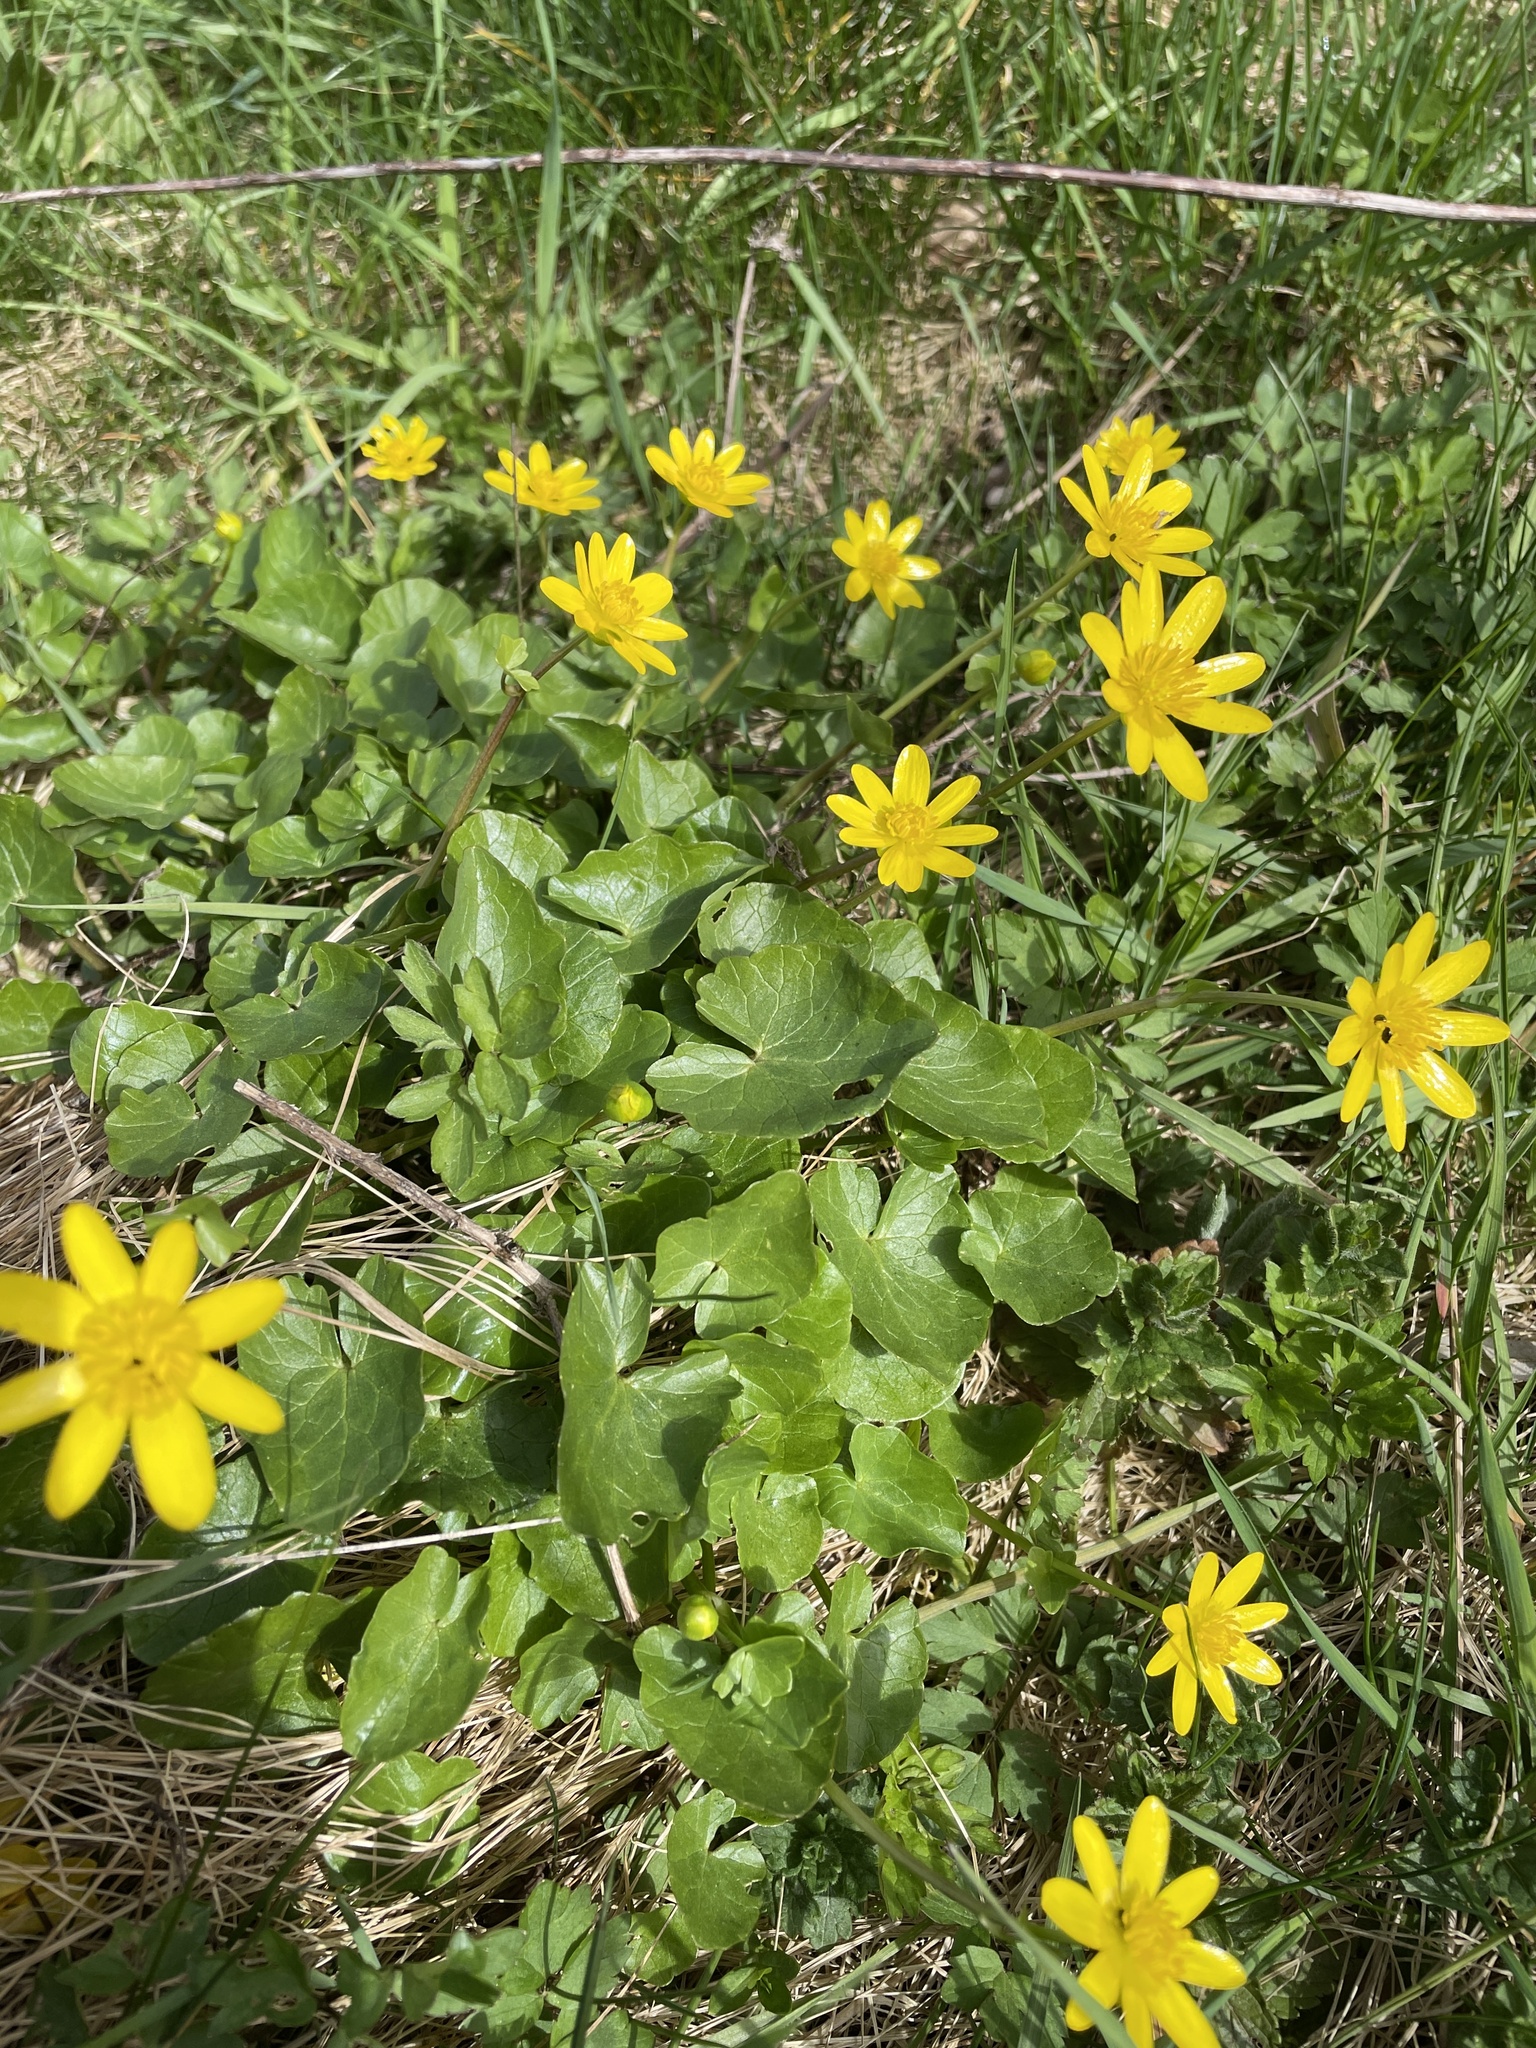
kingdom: Plantae
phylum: Tracheophyta
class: Magnoliopsida
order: Ranunculales
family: Ranunculaceae
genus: Ficaria
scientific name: Ficaria verna
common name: Lesser celandine
